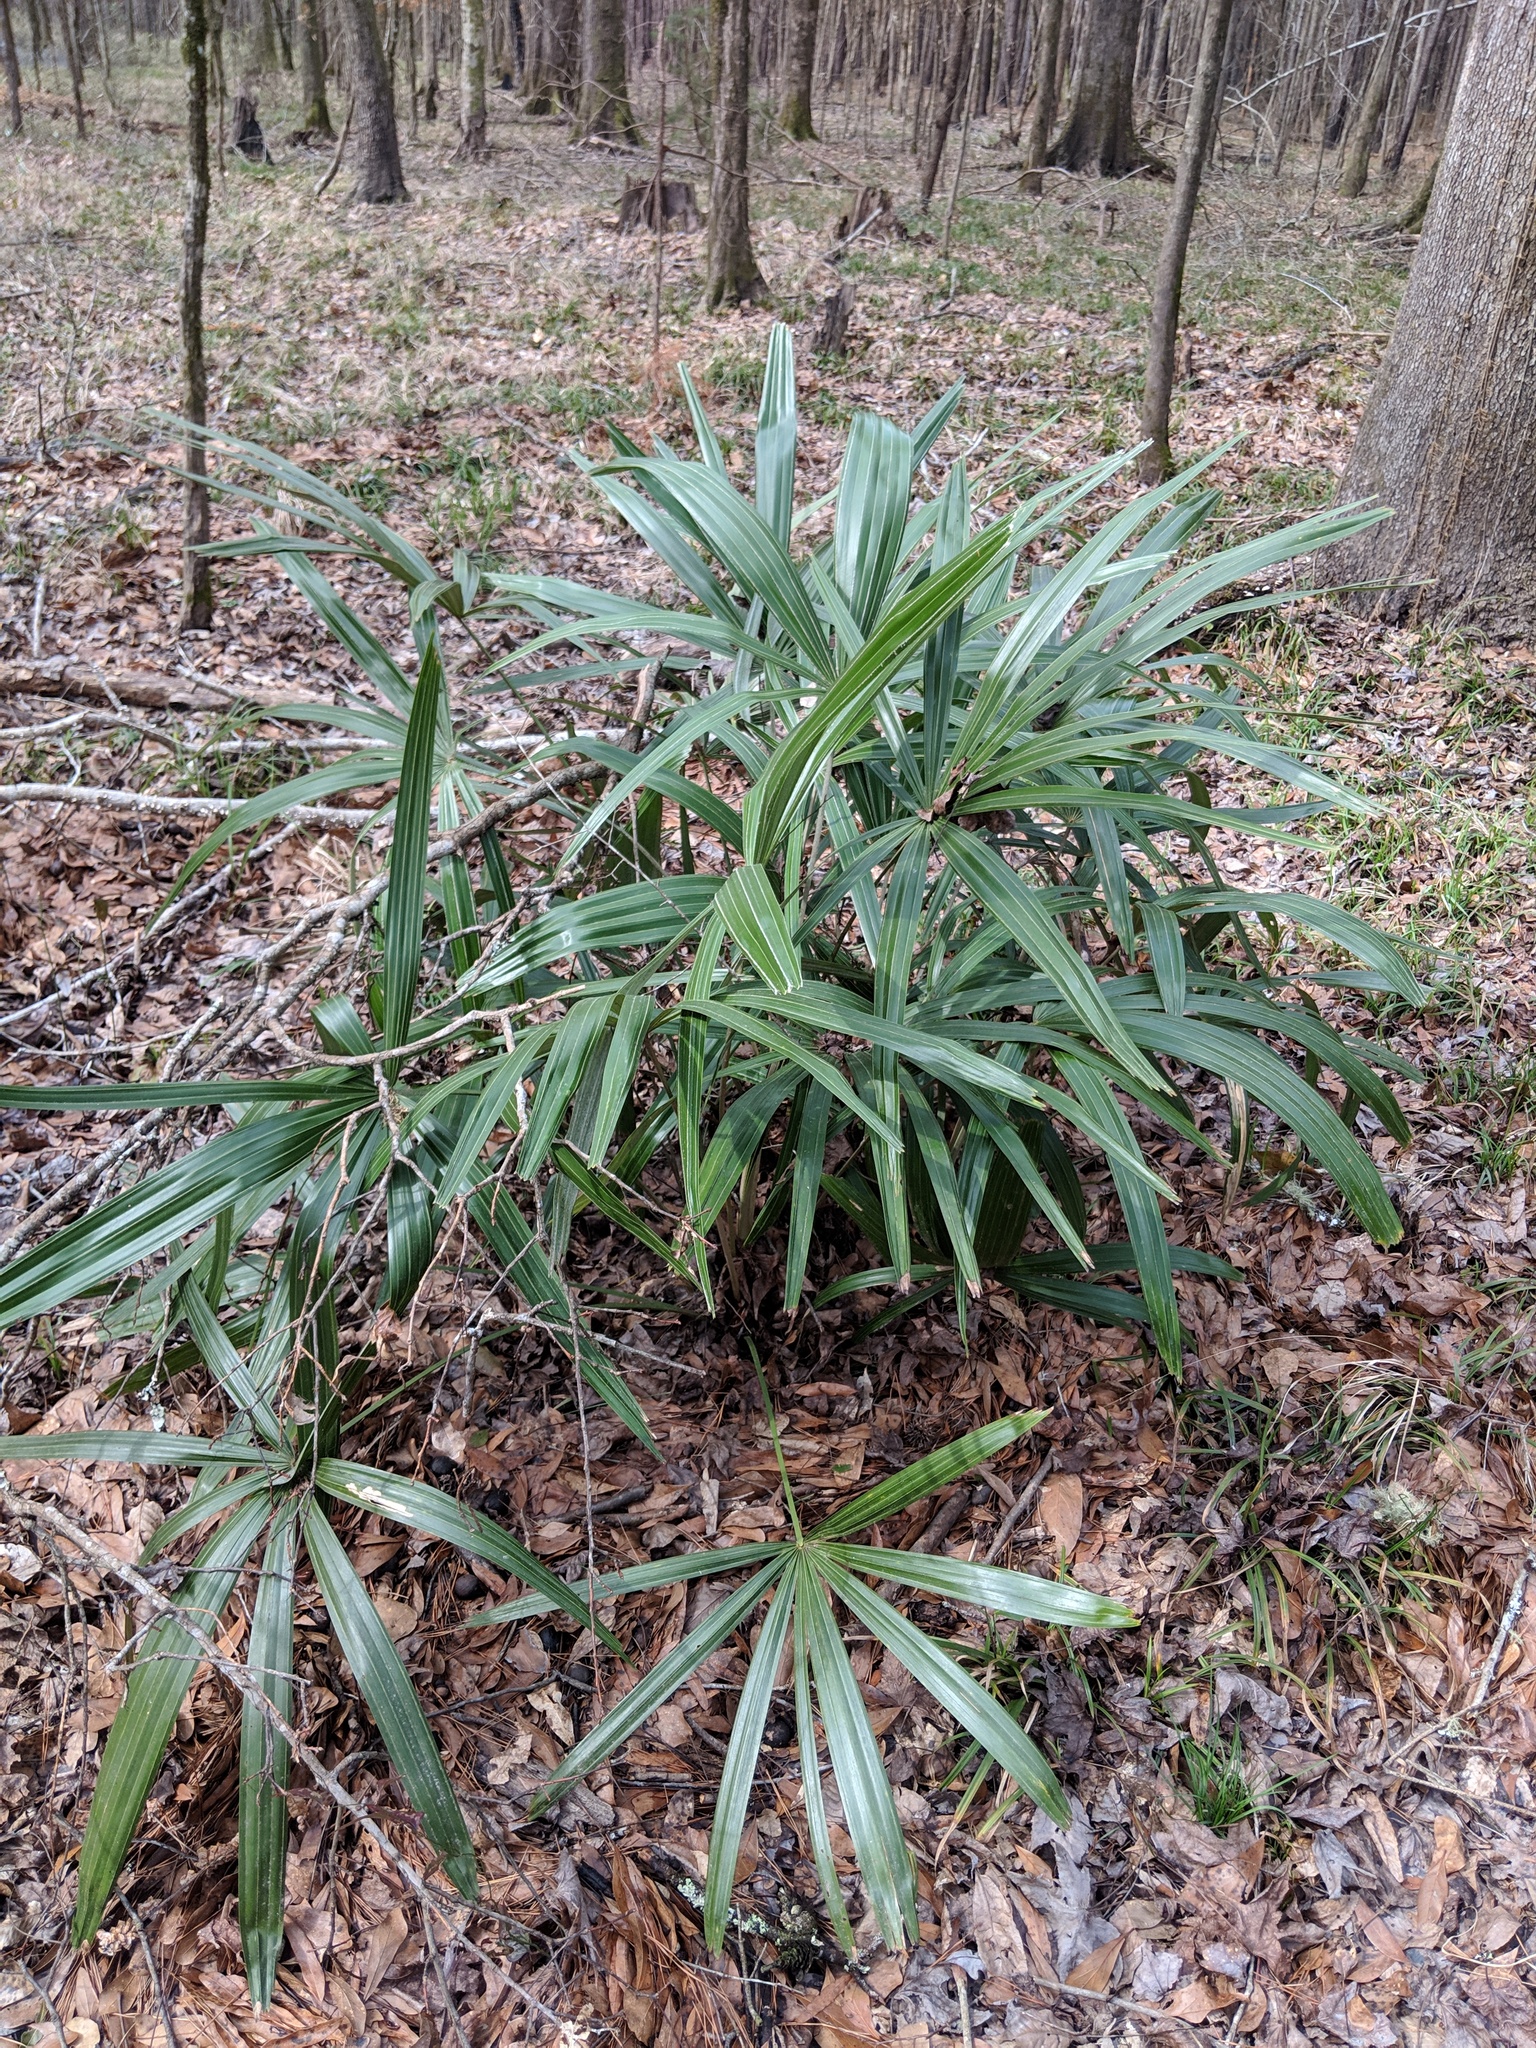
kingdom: Plantae
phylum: Tracheophyta
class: Liliopsida
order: Arecales
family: Arecaceae
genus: Rhapidophyllum
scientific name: Rhapidophyllum hystrix
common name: Porcupine palm
